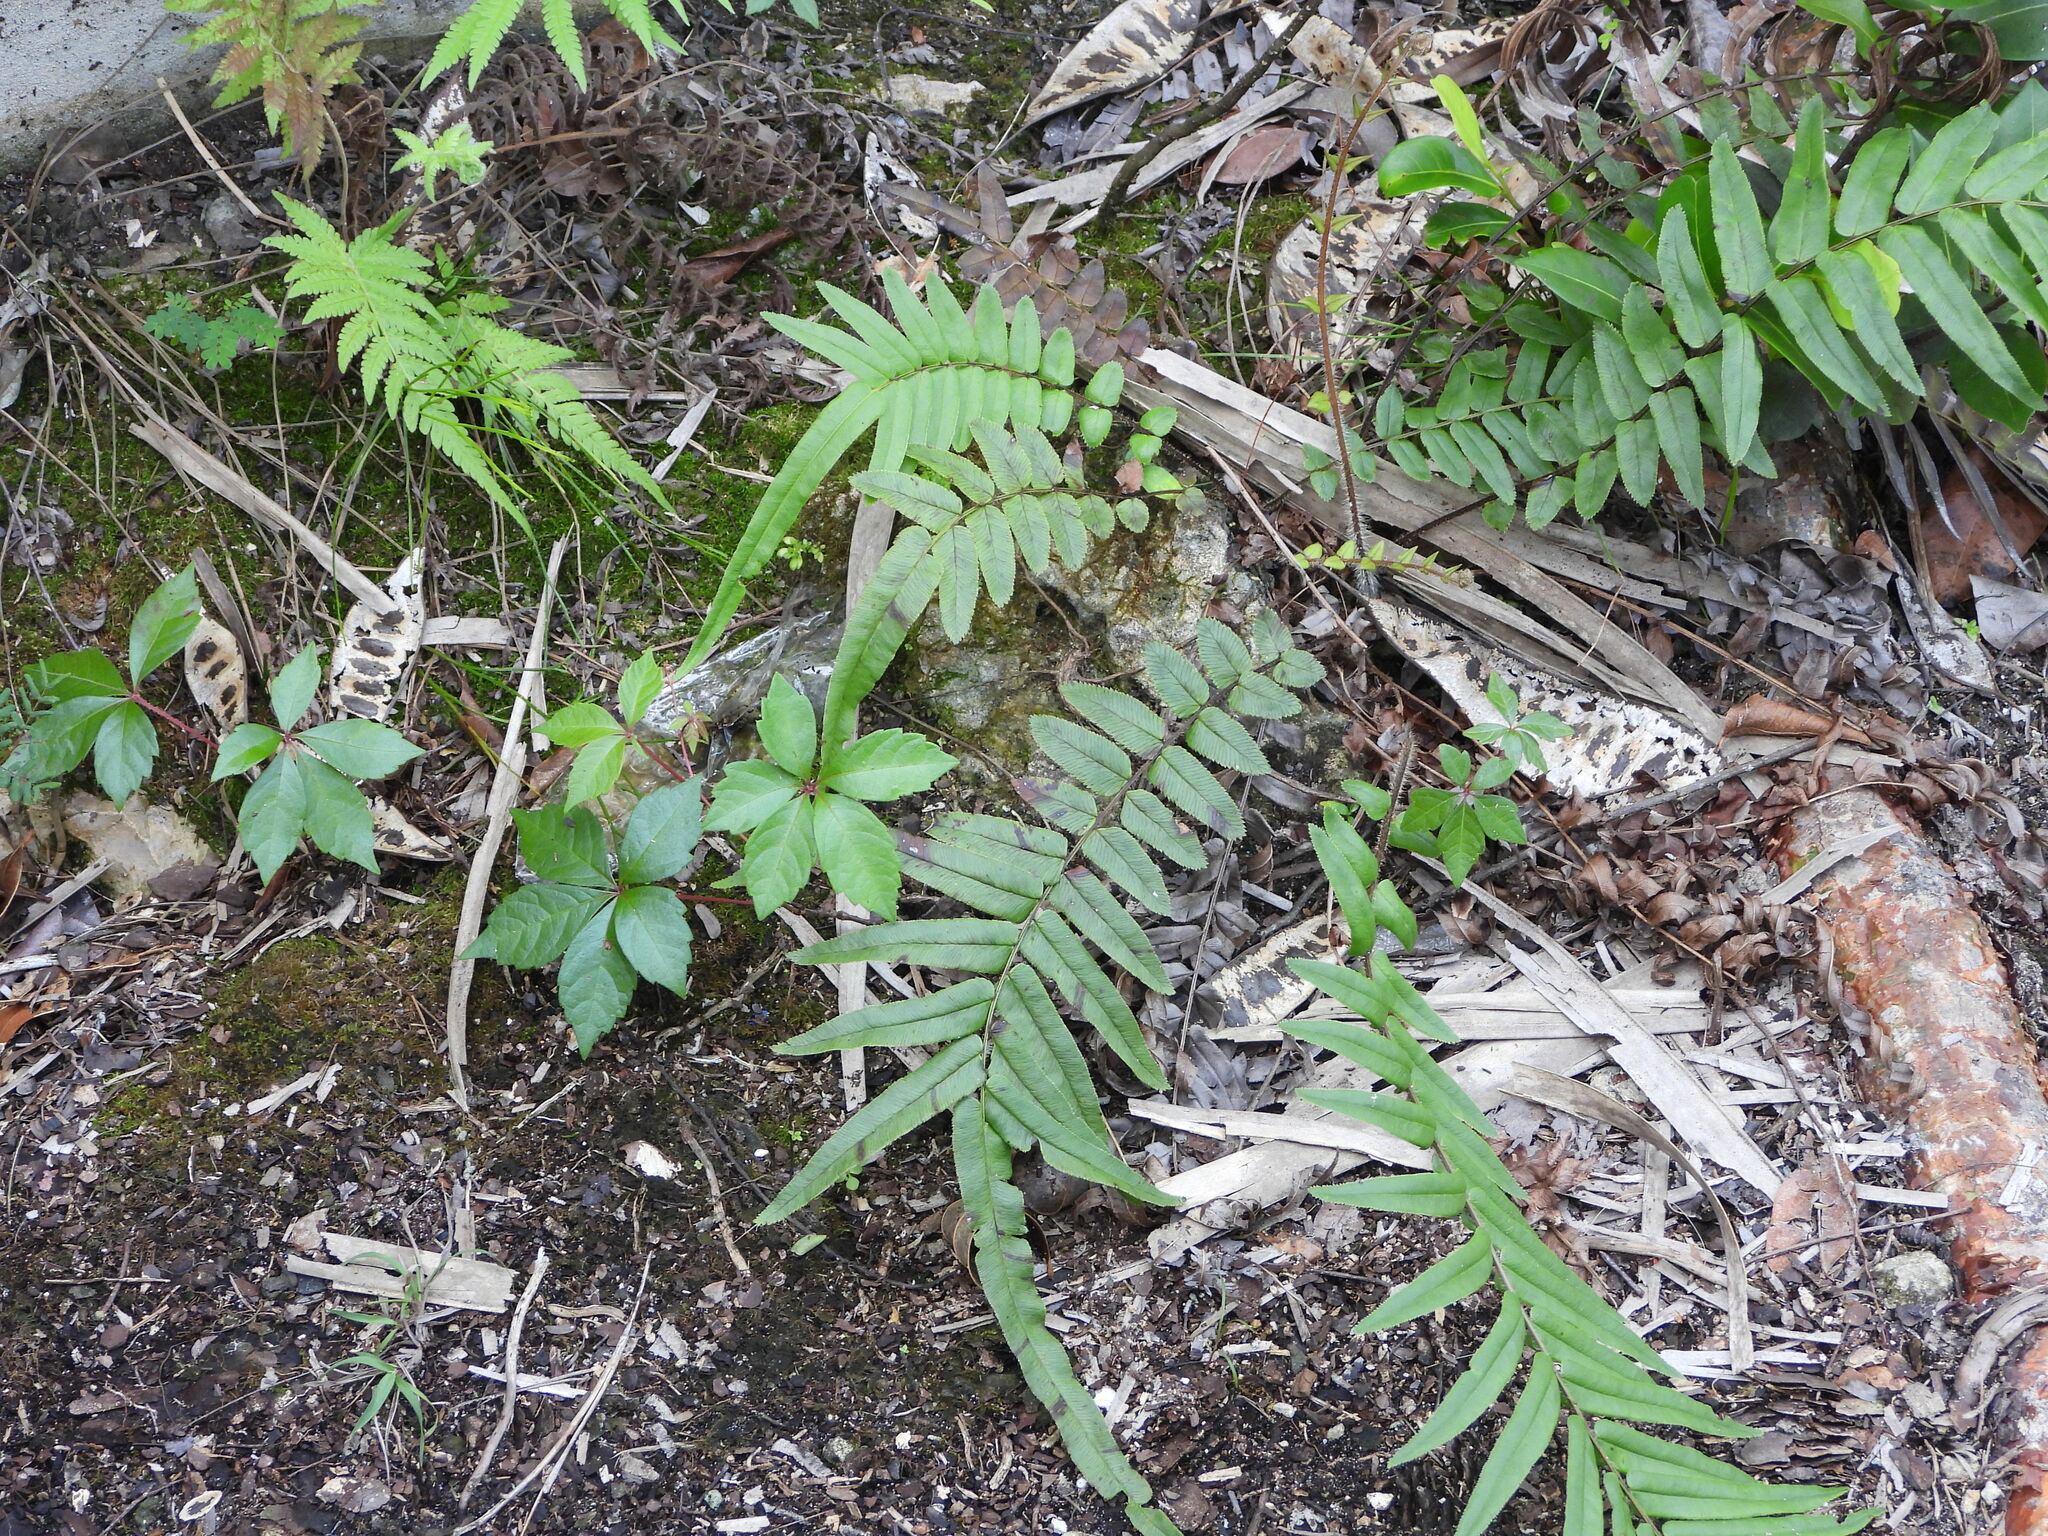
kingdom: Plantae
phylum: Tracheophyta
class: Magnoliopsida
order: Vitales
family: Vitaceae
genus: Parthenocissus
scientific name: Parthenocissus quinquefolia
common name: Virginia-creeper
